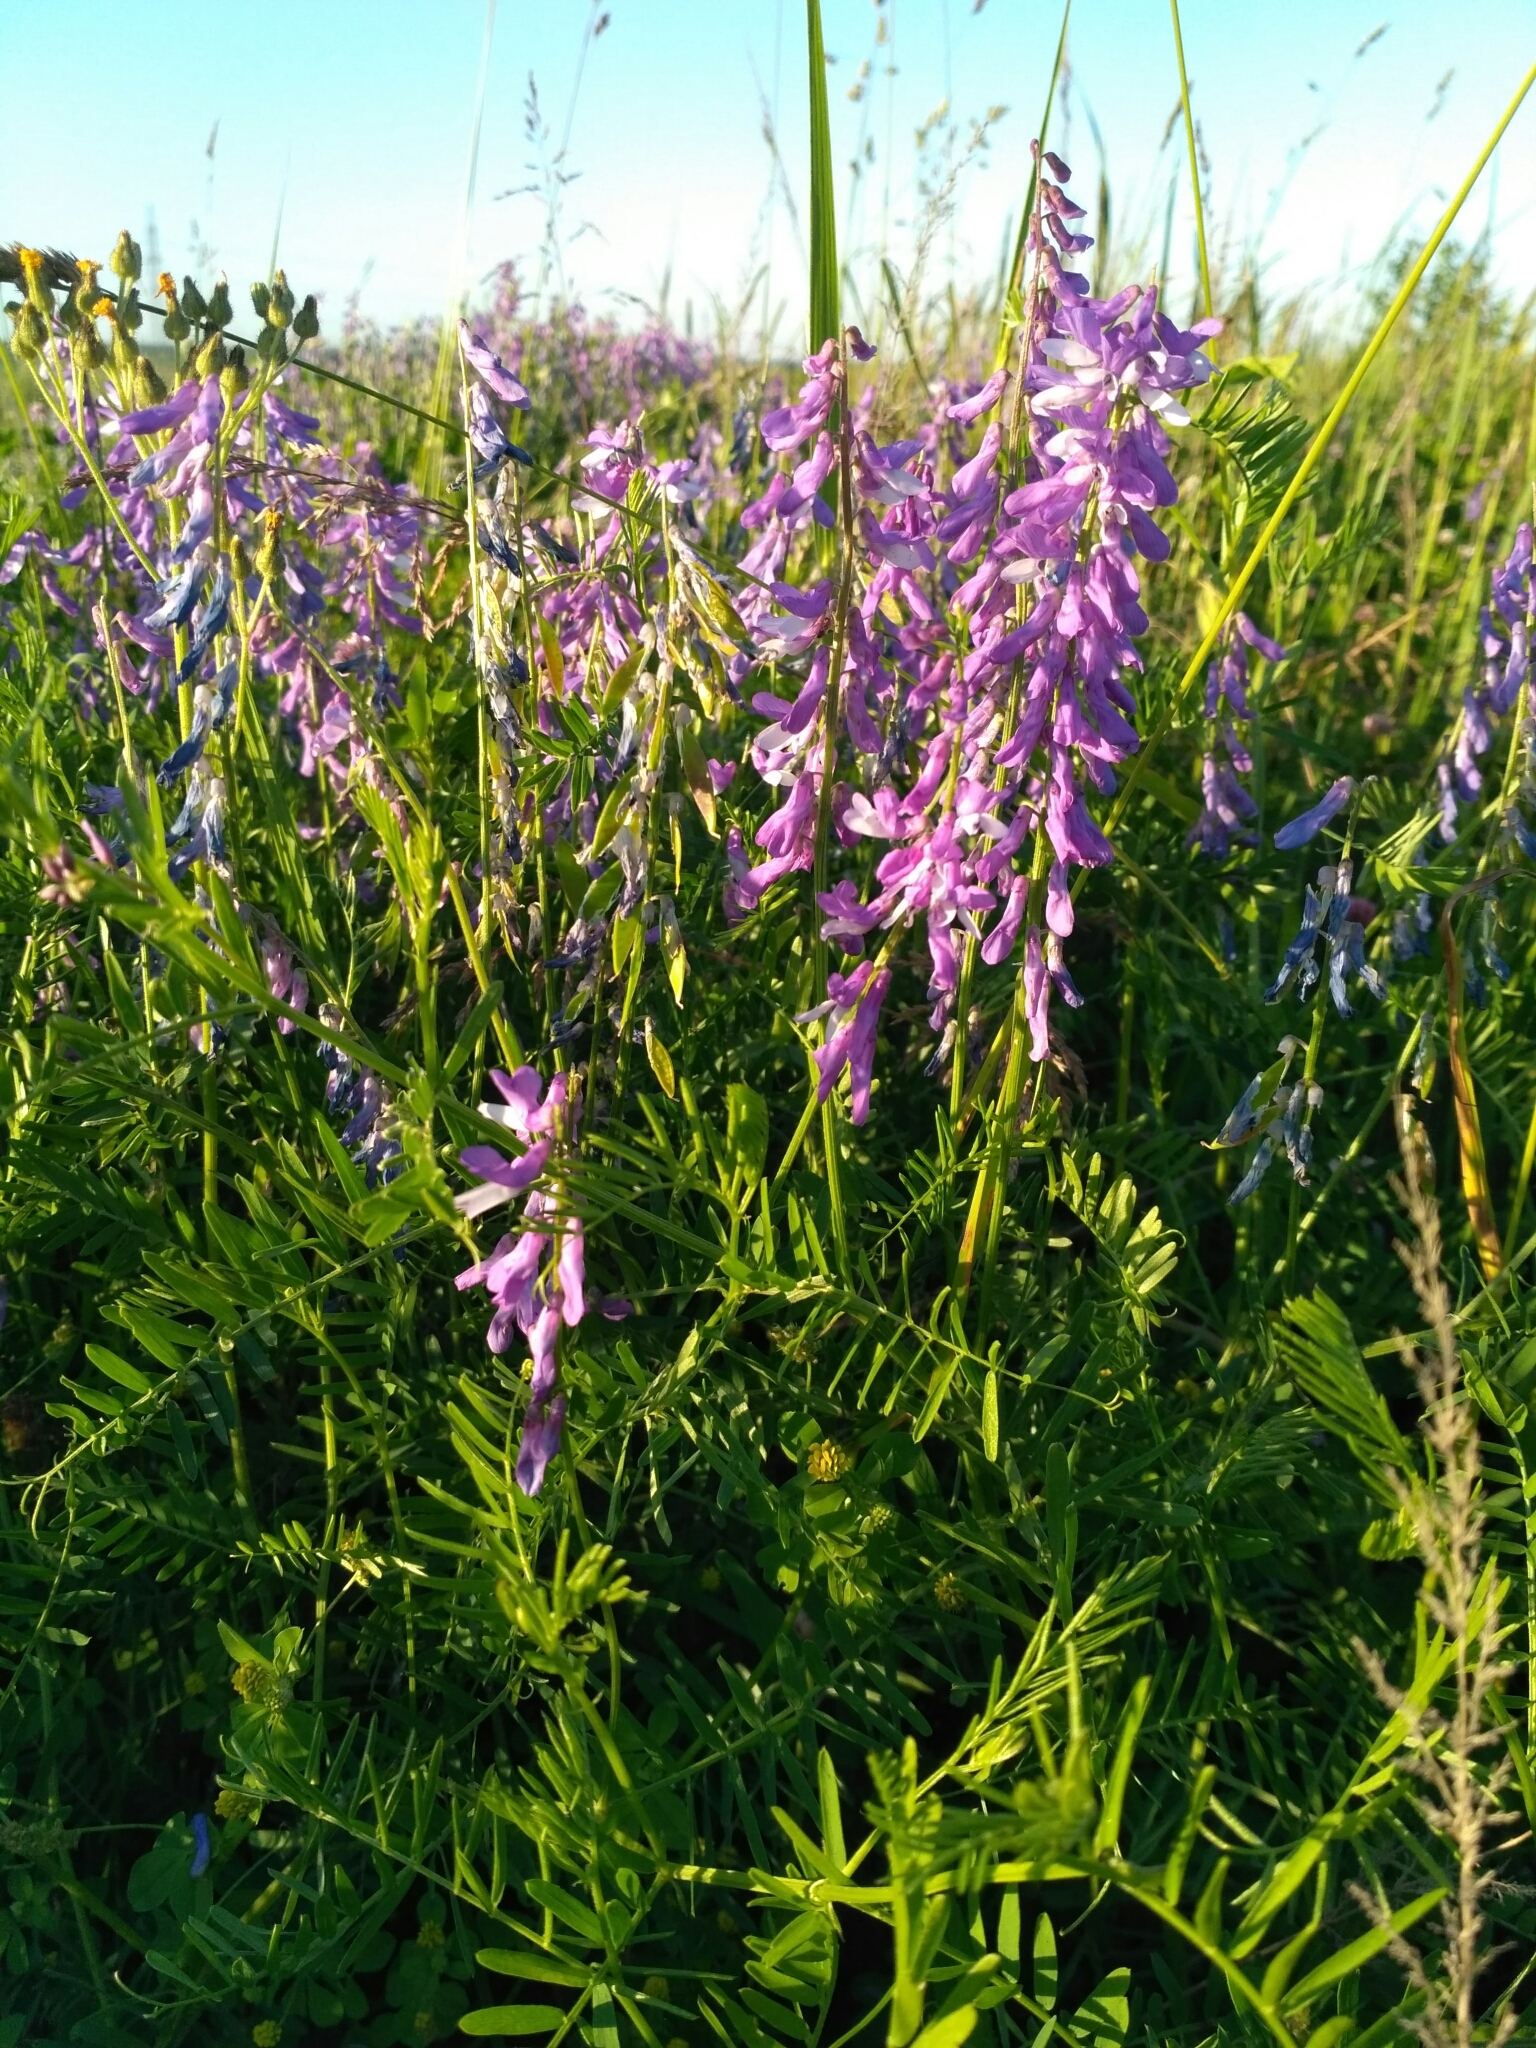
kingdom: Plantae
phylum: Tracheophyta
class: Magnoliopsida
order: Fabales
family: Fabaceae
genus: Vicia
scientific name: Vicia tenuifolia
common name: Fine-leaved vetch
